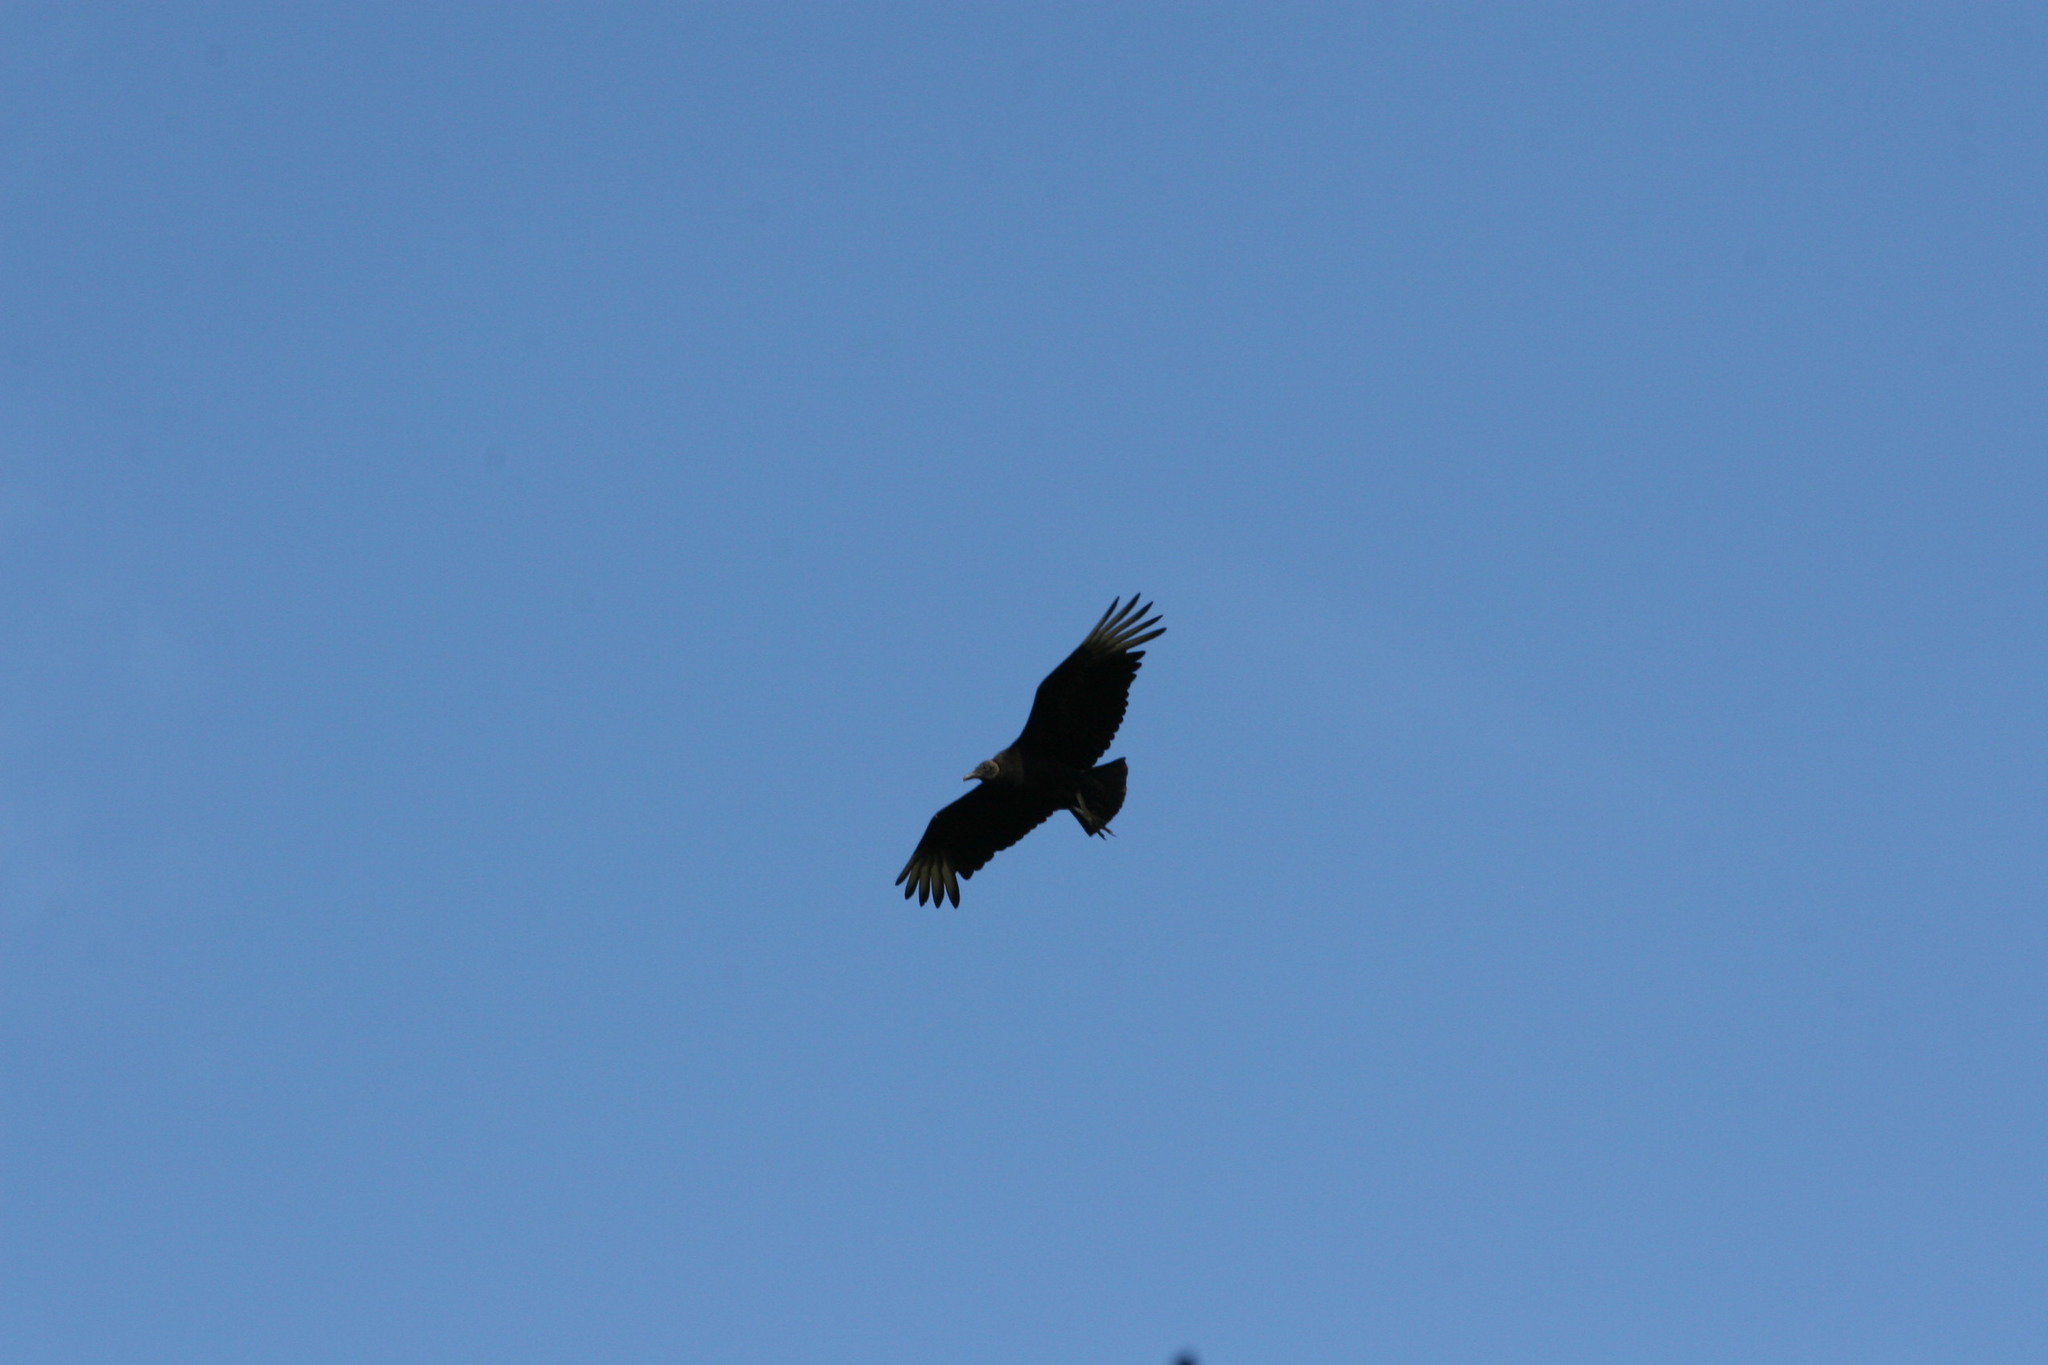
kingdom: Animalia
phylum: Chordata
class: Aves
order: Accipitriformes
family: Cathartidae
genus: Coragyps
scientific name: Coragyps atratus
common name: Black vulture
